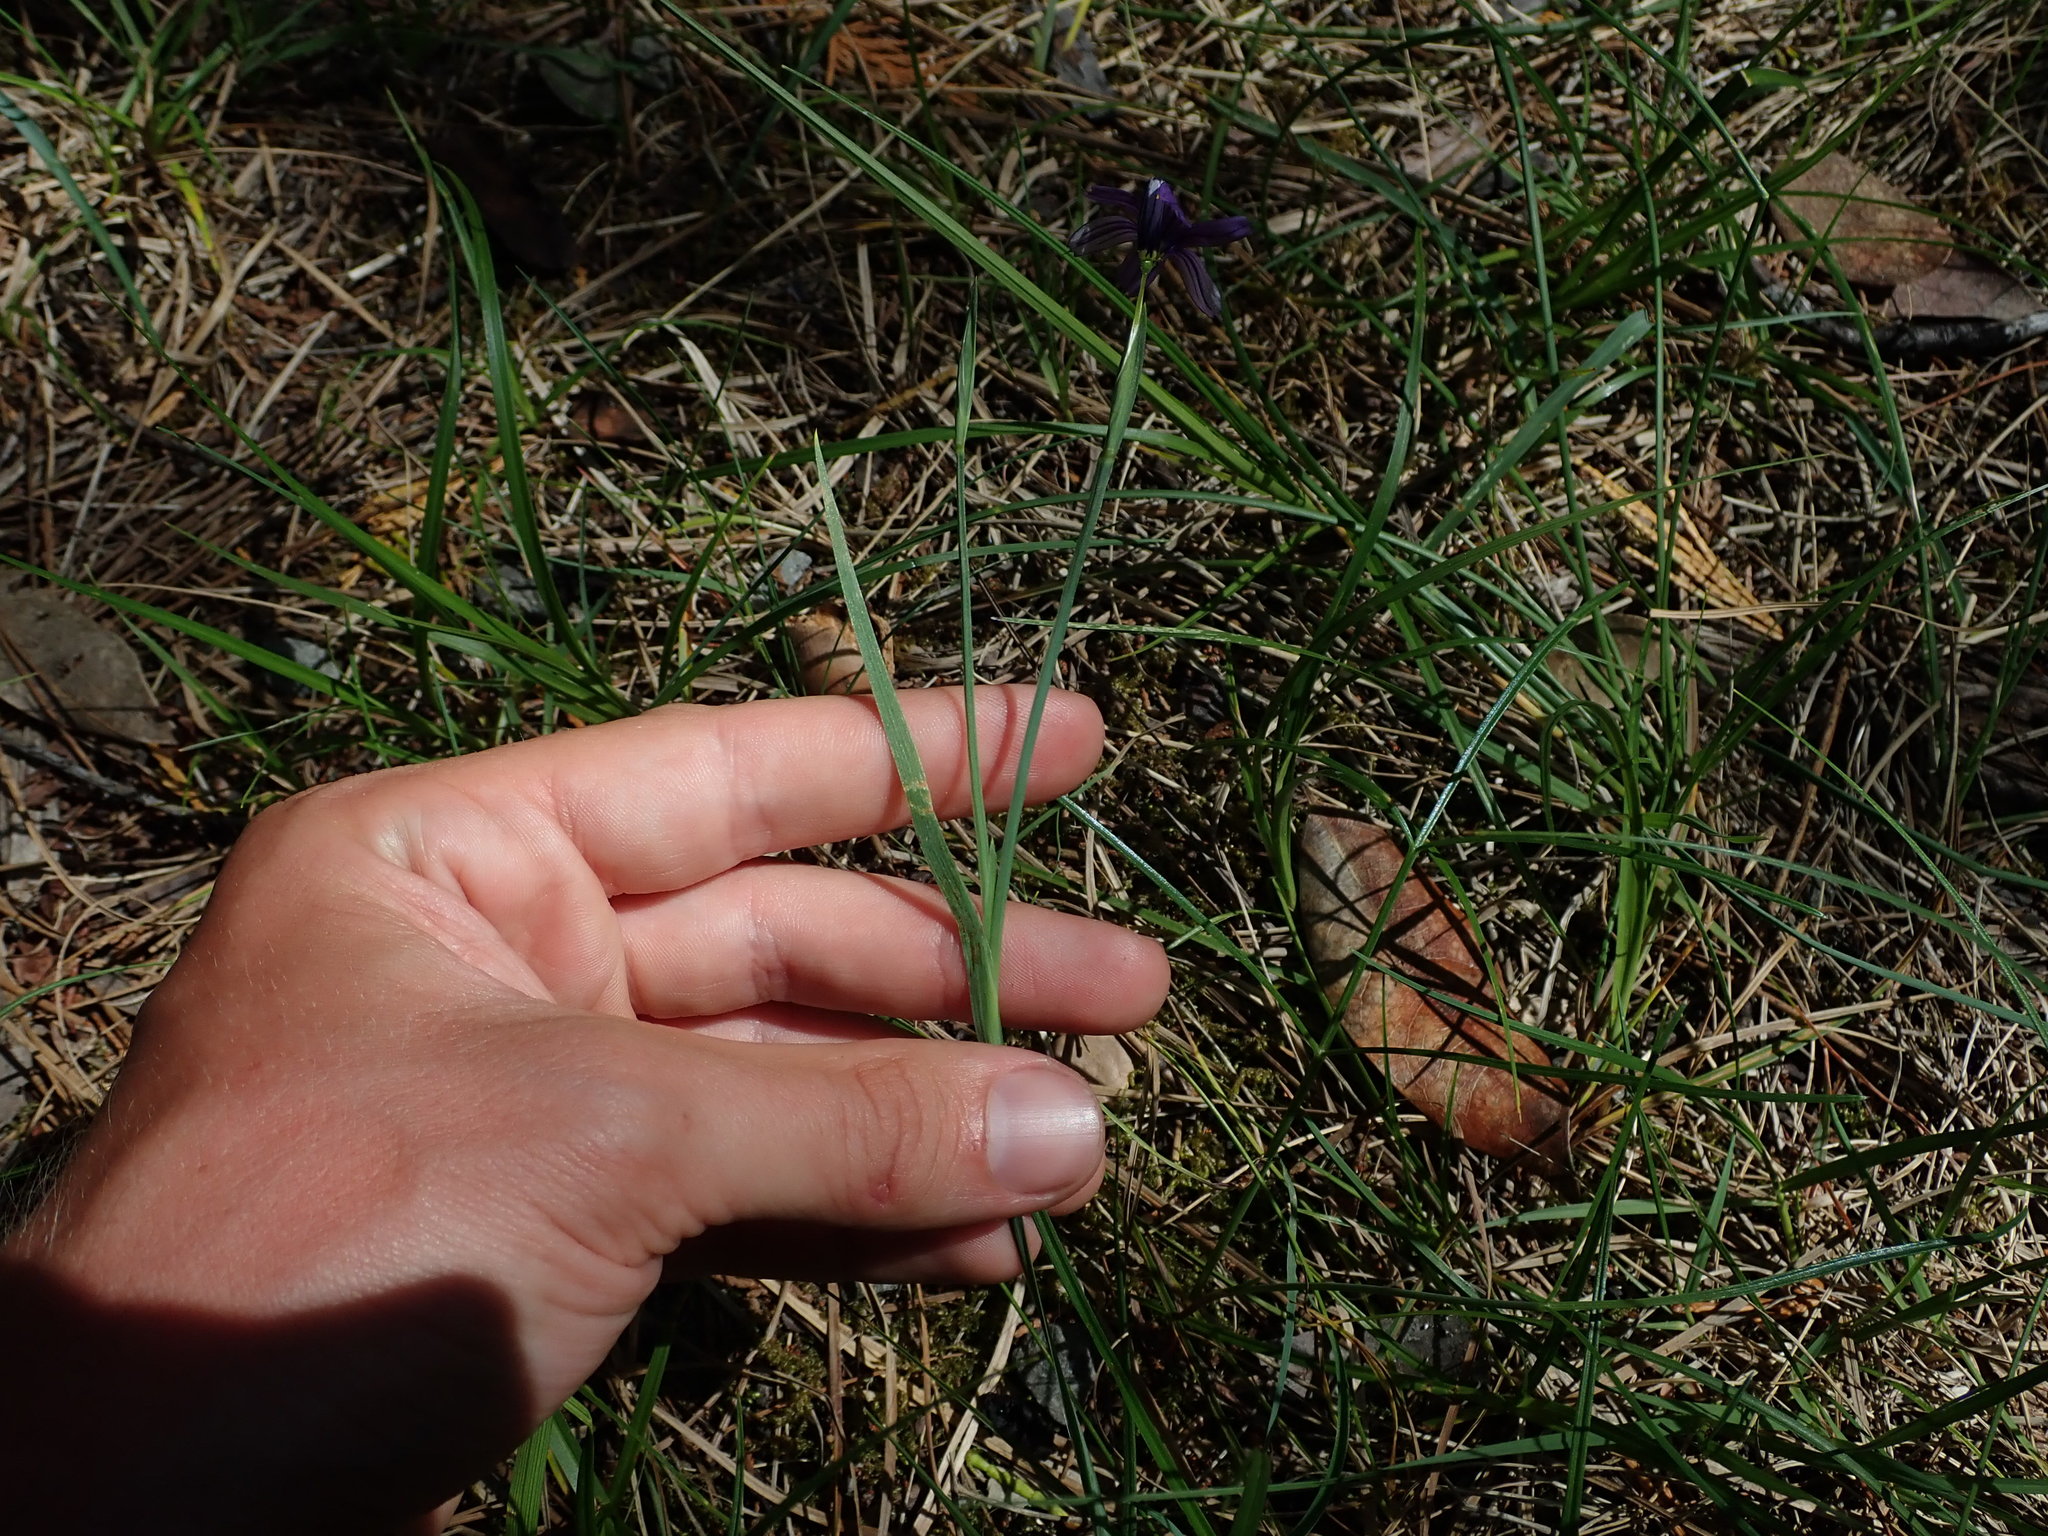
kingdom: Plantae
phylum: Tracheophyta
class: Liliopsida
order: Asparagales
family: Iridaceae
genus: Sisyrinchium
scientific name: Sisyrinchium bellum
